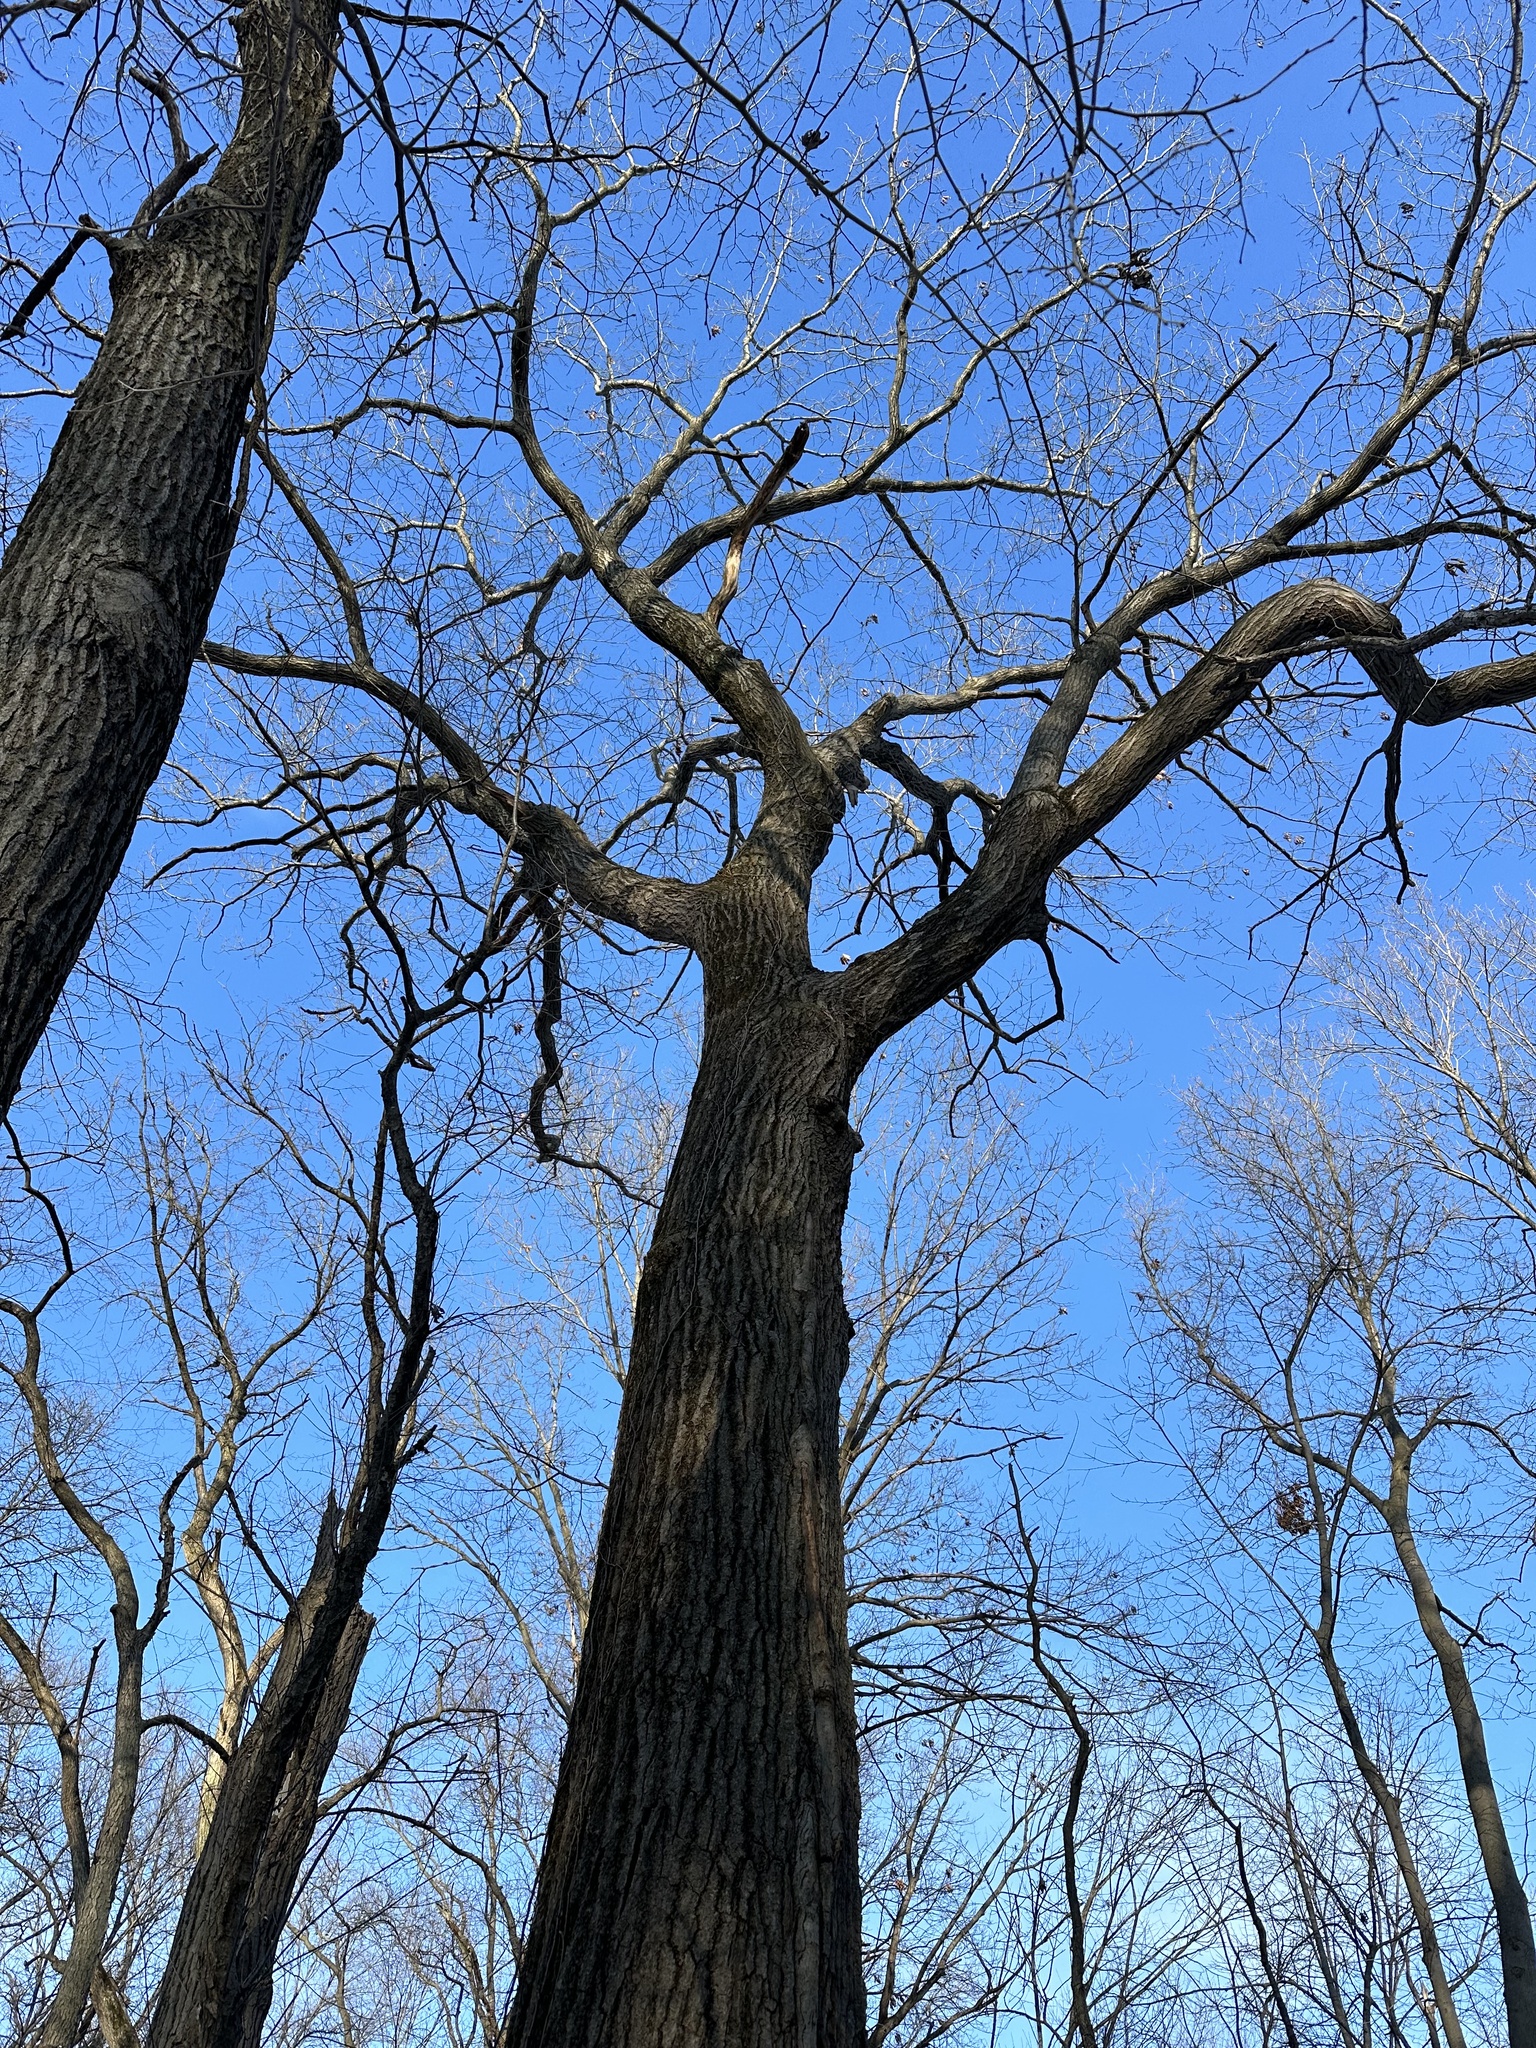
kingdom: Plantae
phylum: Tracheophyta
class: Magnoliopsida
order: Fagales
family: Fagaceae
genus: Quercus
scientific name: Quercus rubra
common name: Red oak
